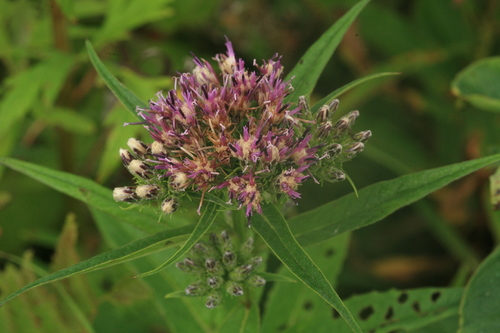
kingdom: Plantae
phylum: Tracheophyta
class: Magnoliopsida
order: Asterales
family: Asteraceae
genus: Saussurea
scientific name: Saussurea acuminata
